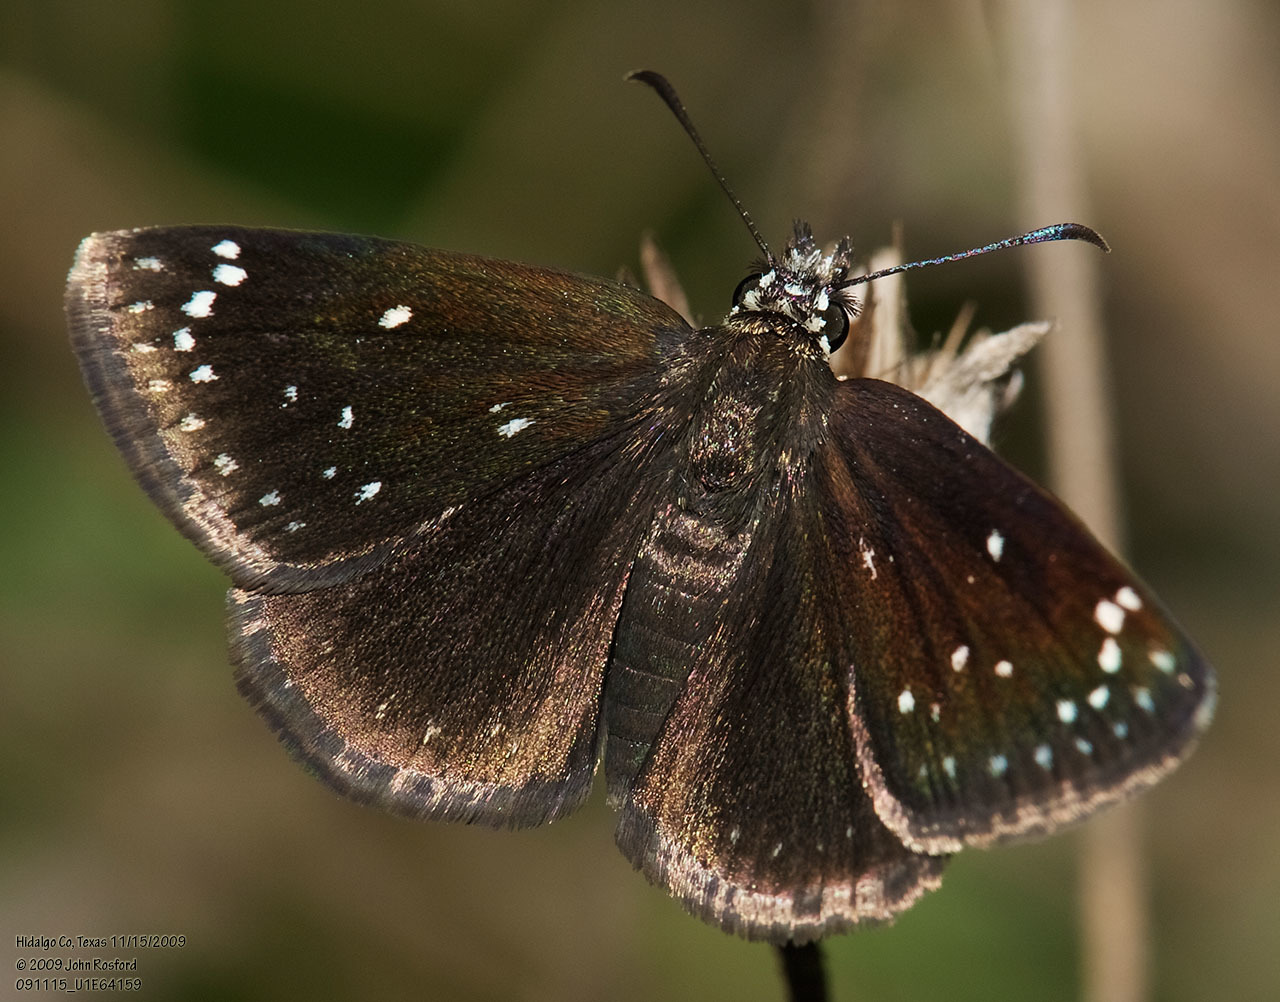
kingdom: Animalia
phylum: Arthropoda
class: Insecta
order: Lepidoptera
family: Hesperiidae
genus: Pholisora
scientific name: Pholisora catullus
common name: Common sootywing
